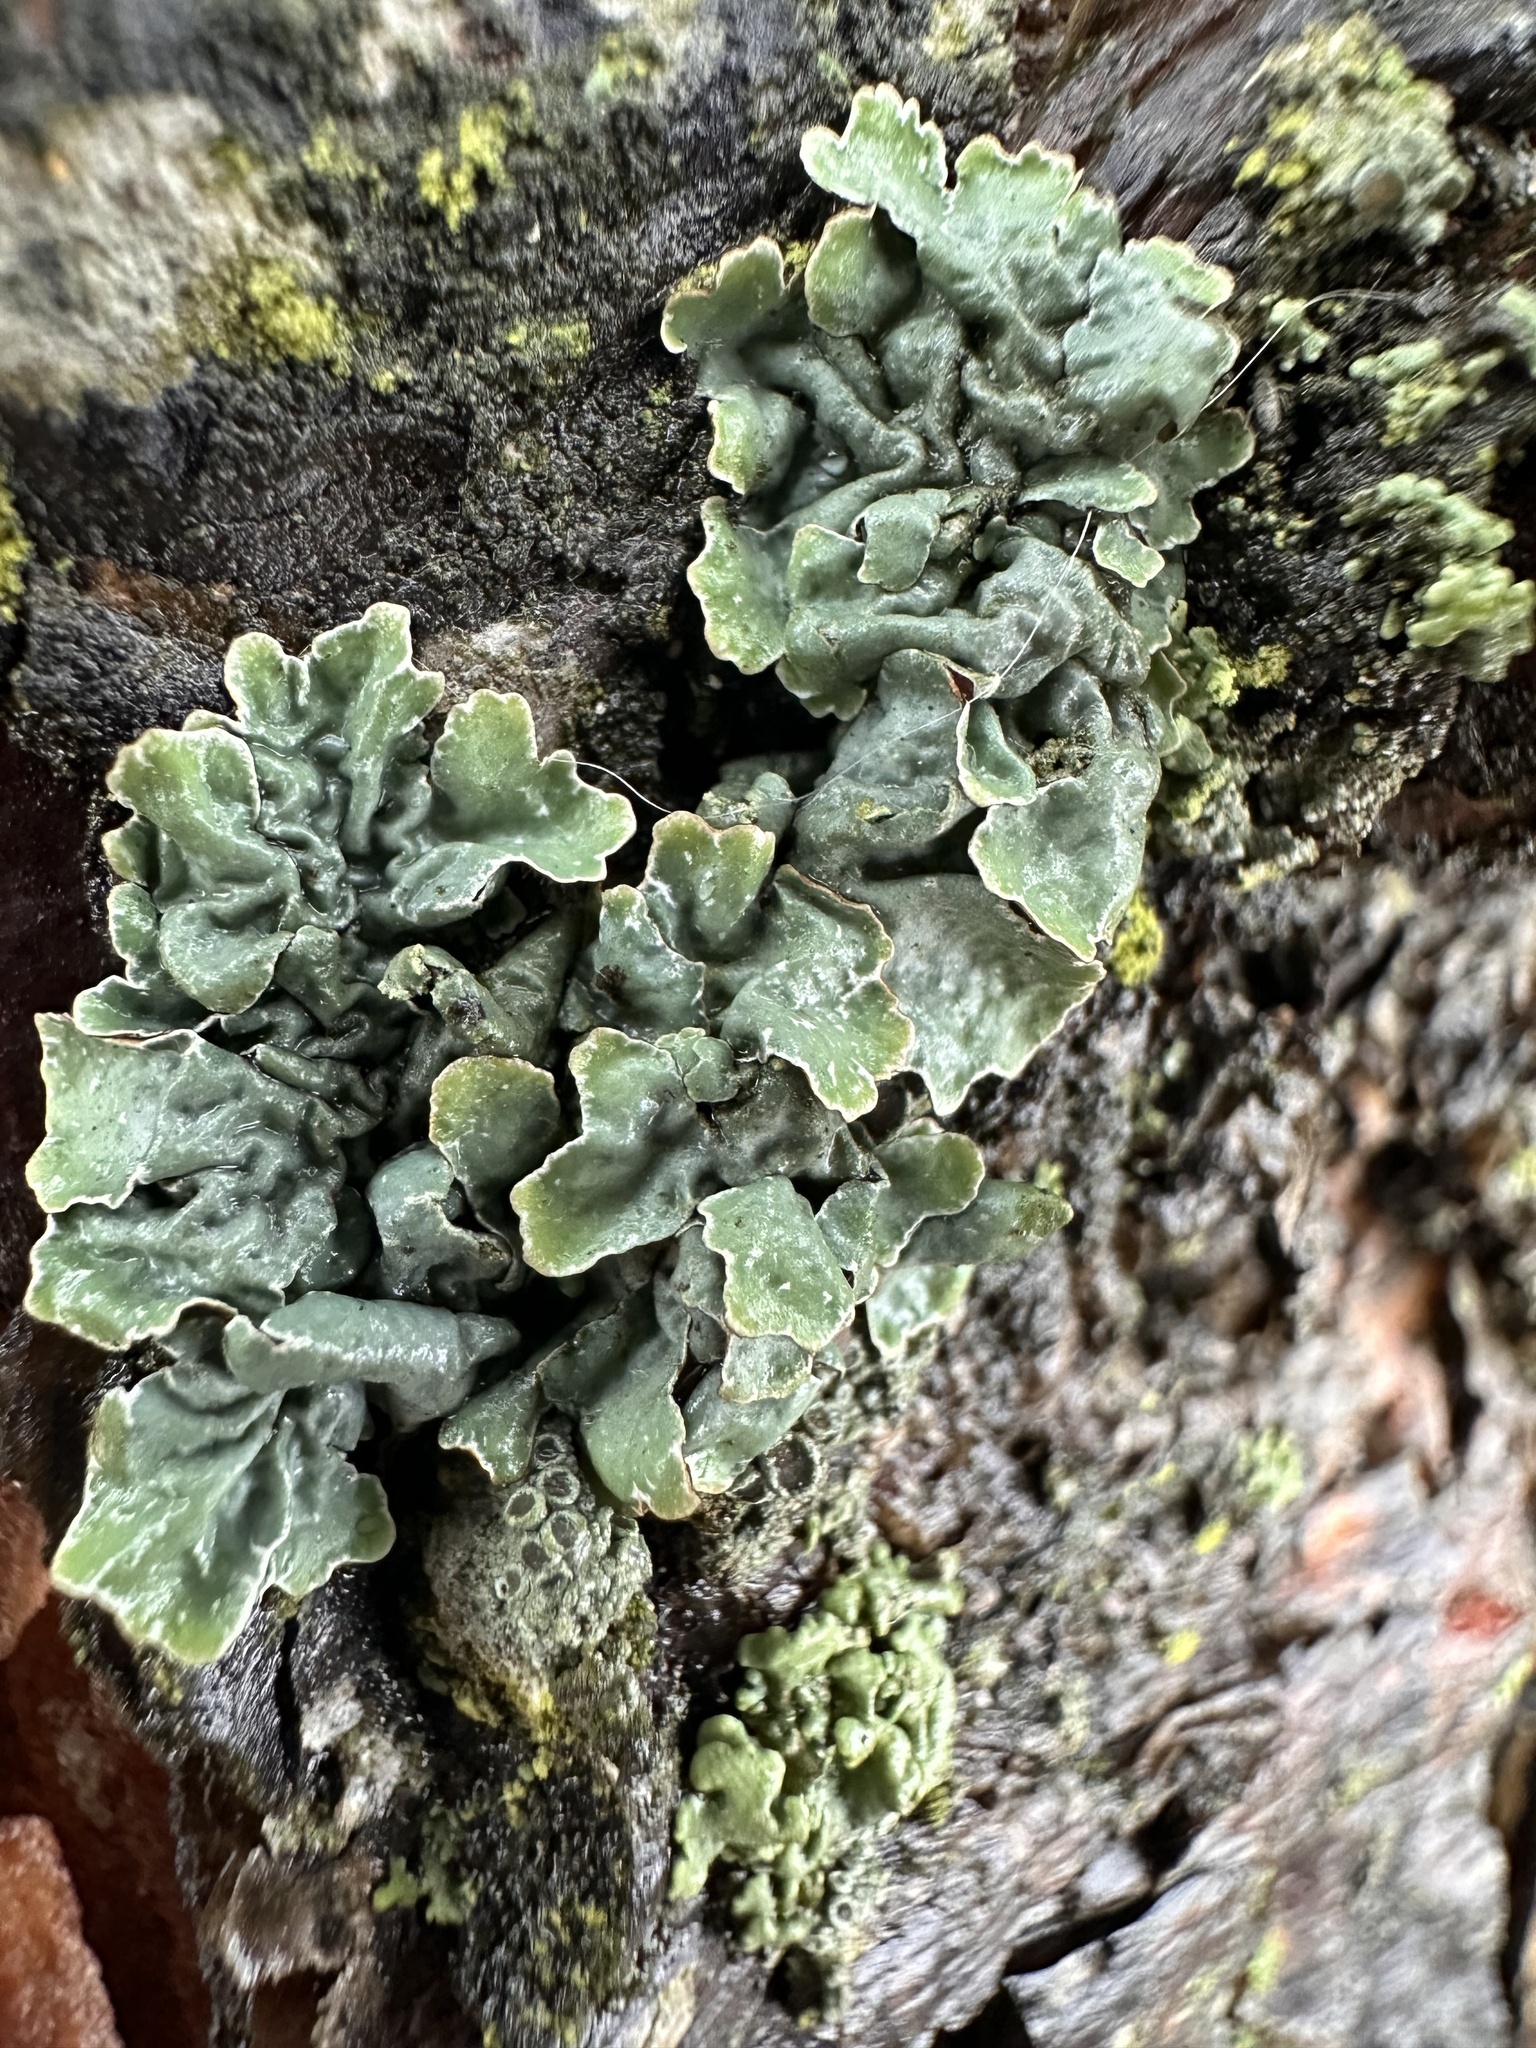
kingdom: Fungi
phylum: Ascomycota
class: Lecanoromycetes
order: Lecanorales
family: Parmeliaceae
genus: Parmelia
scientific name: Parmelia sulcata
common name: Netted shield lichen
